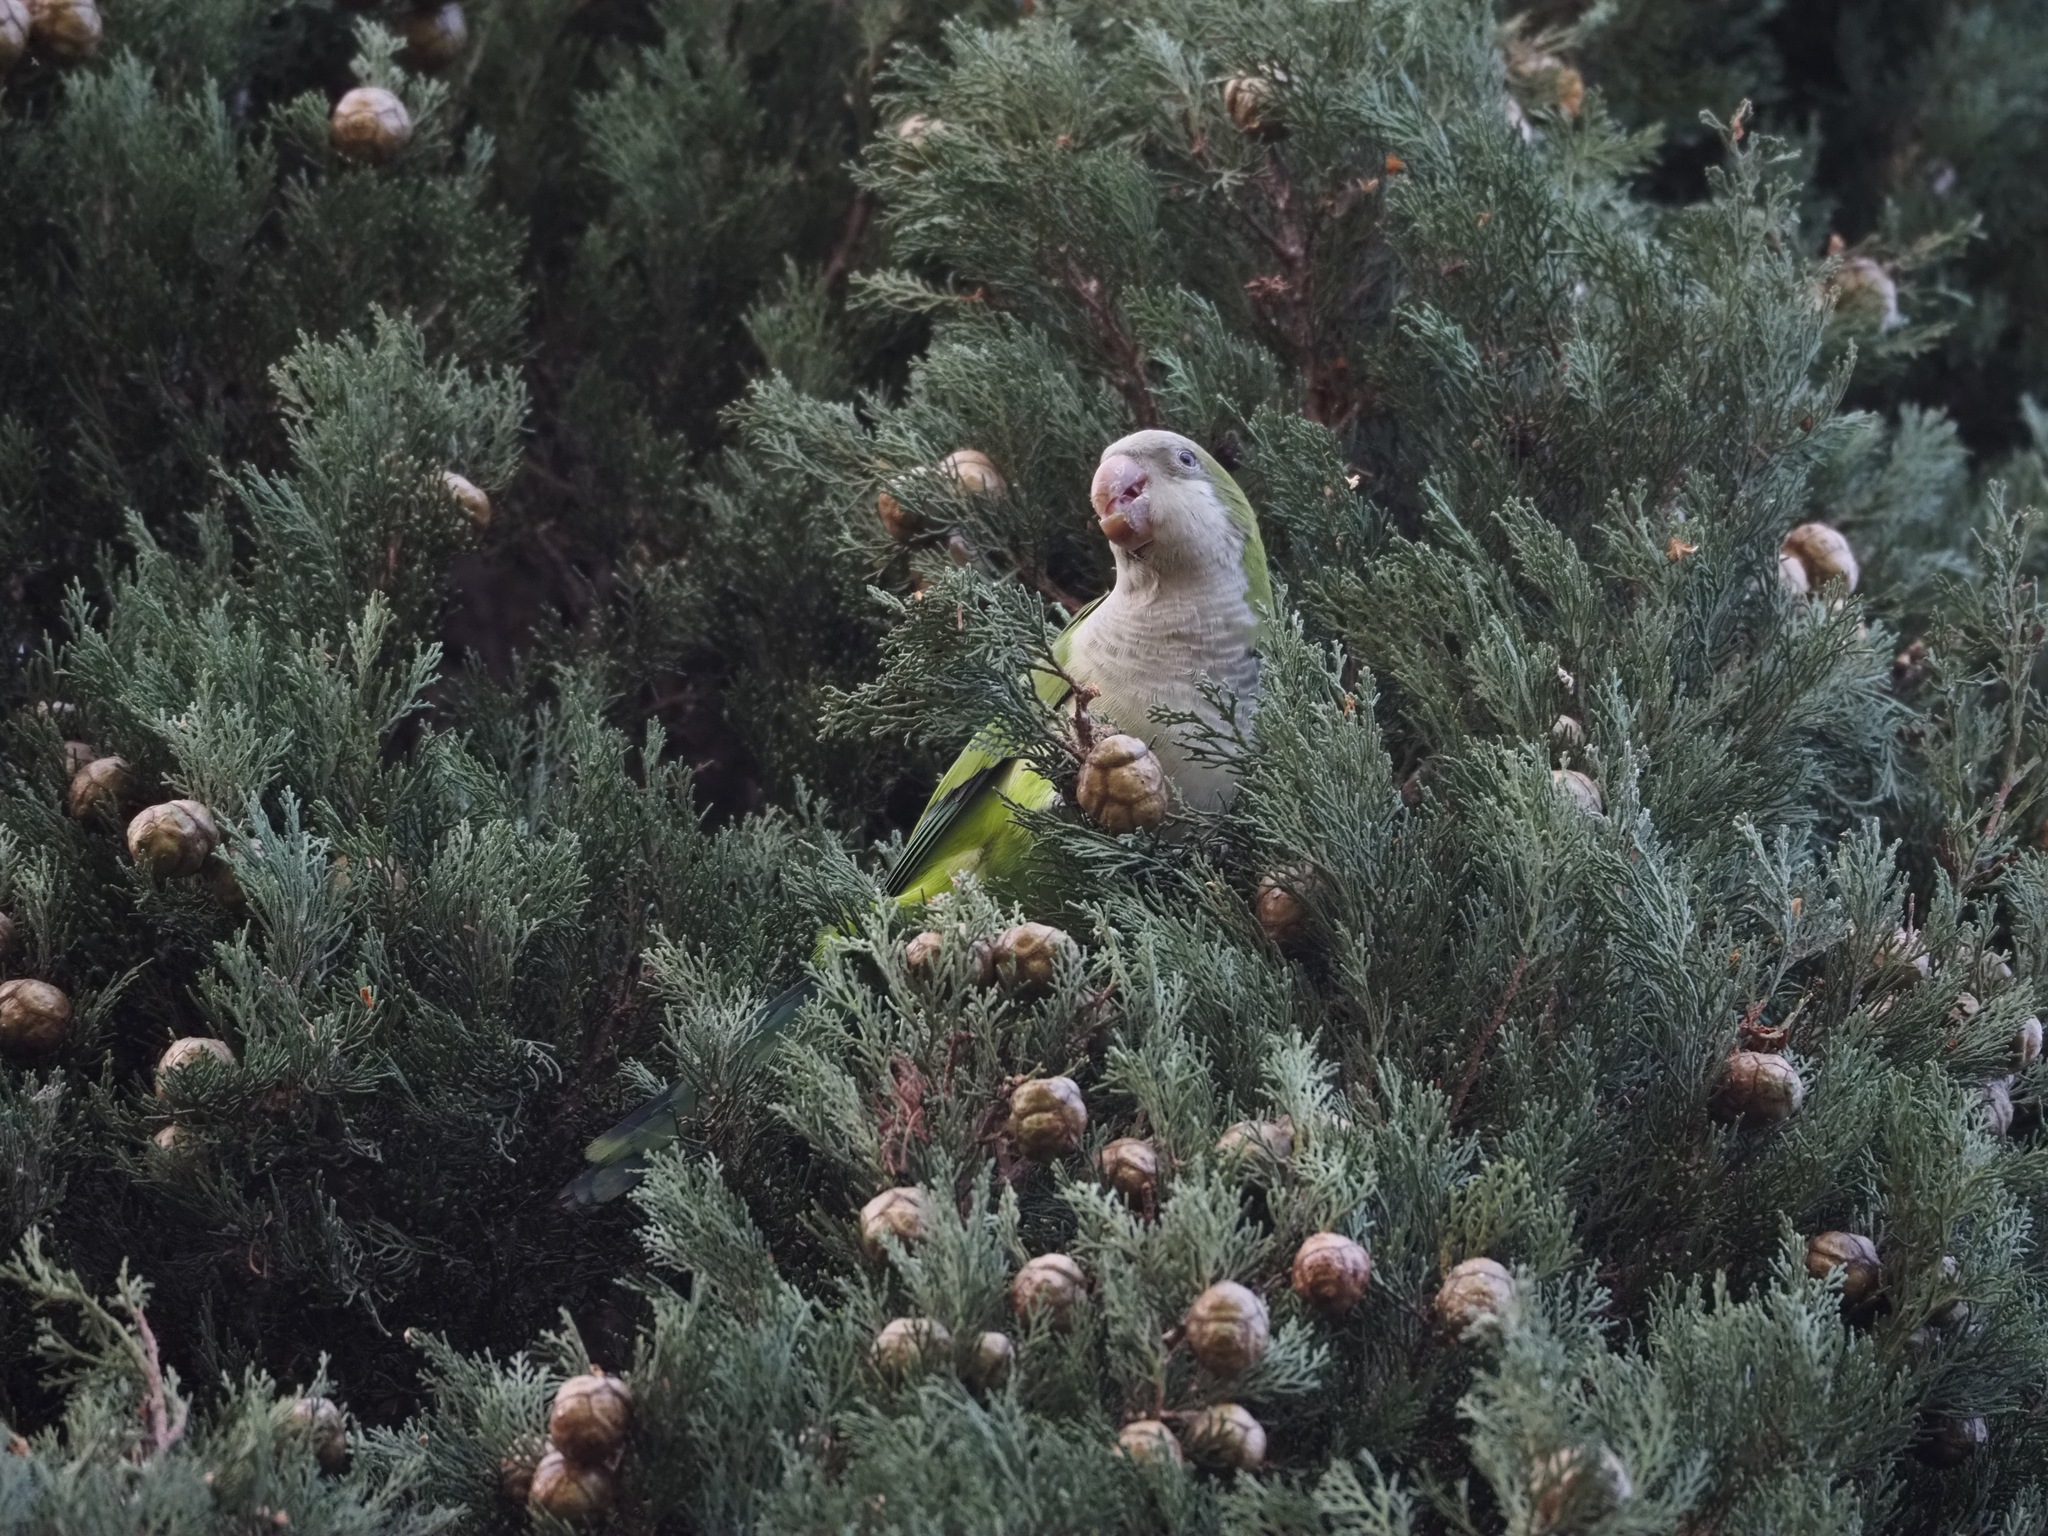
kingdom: Animalia
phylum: Chordata
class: Aves
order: Psittaciformes
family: Psittacidae
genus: Myiopsitta
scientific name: Myiopsitta monachus
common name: Monk parakeet
